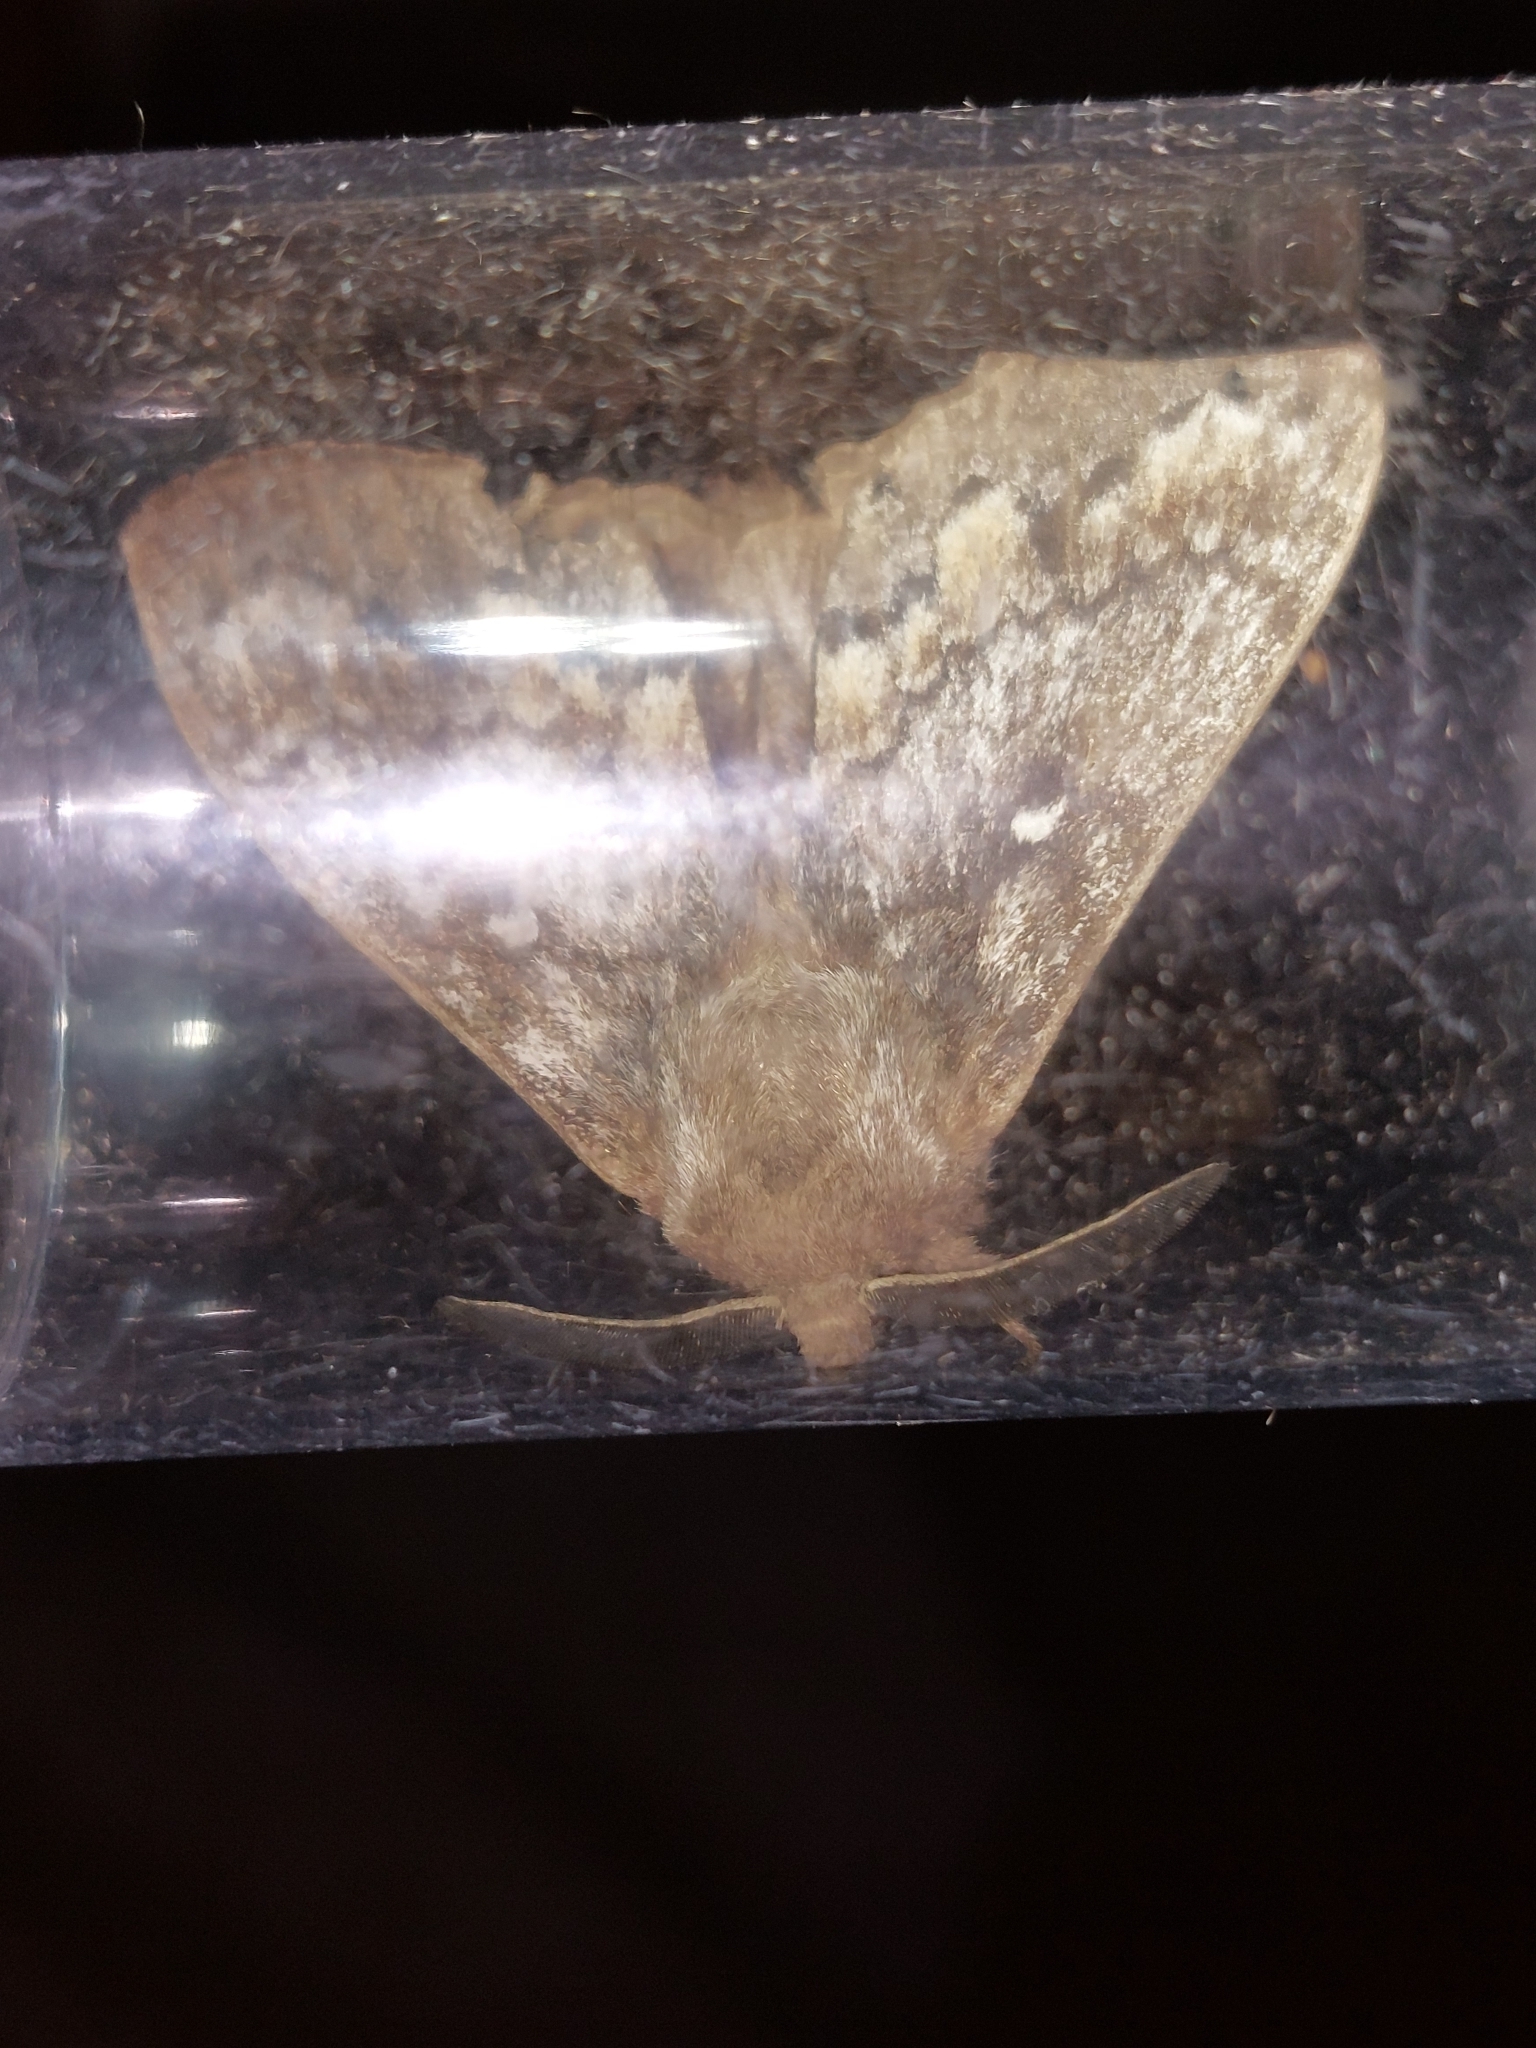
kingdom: Animalia
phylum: Arthropoda
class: Insecta
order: Lepidoptera
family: Lasiocampidae
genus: Dendrolimus
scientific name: Dendrolimus pini
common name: Pine-tree lappet
